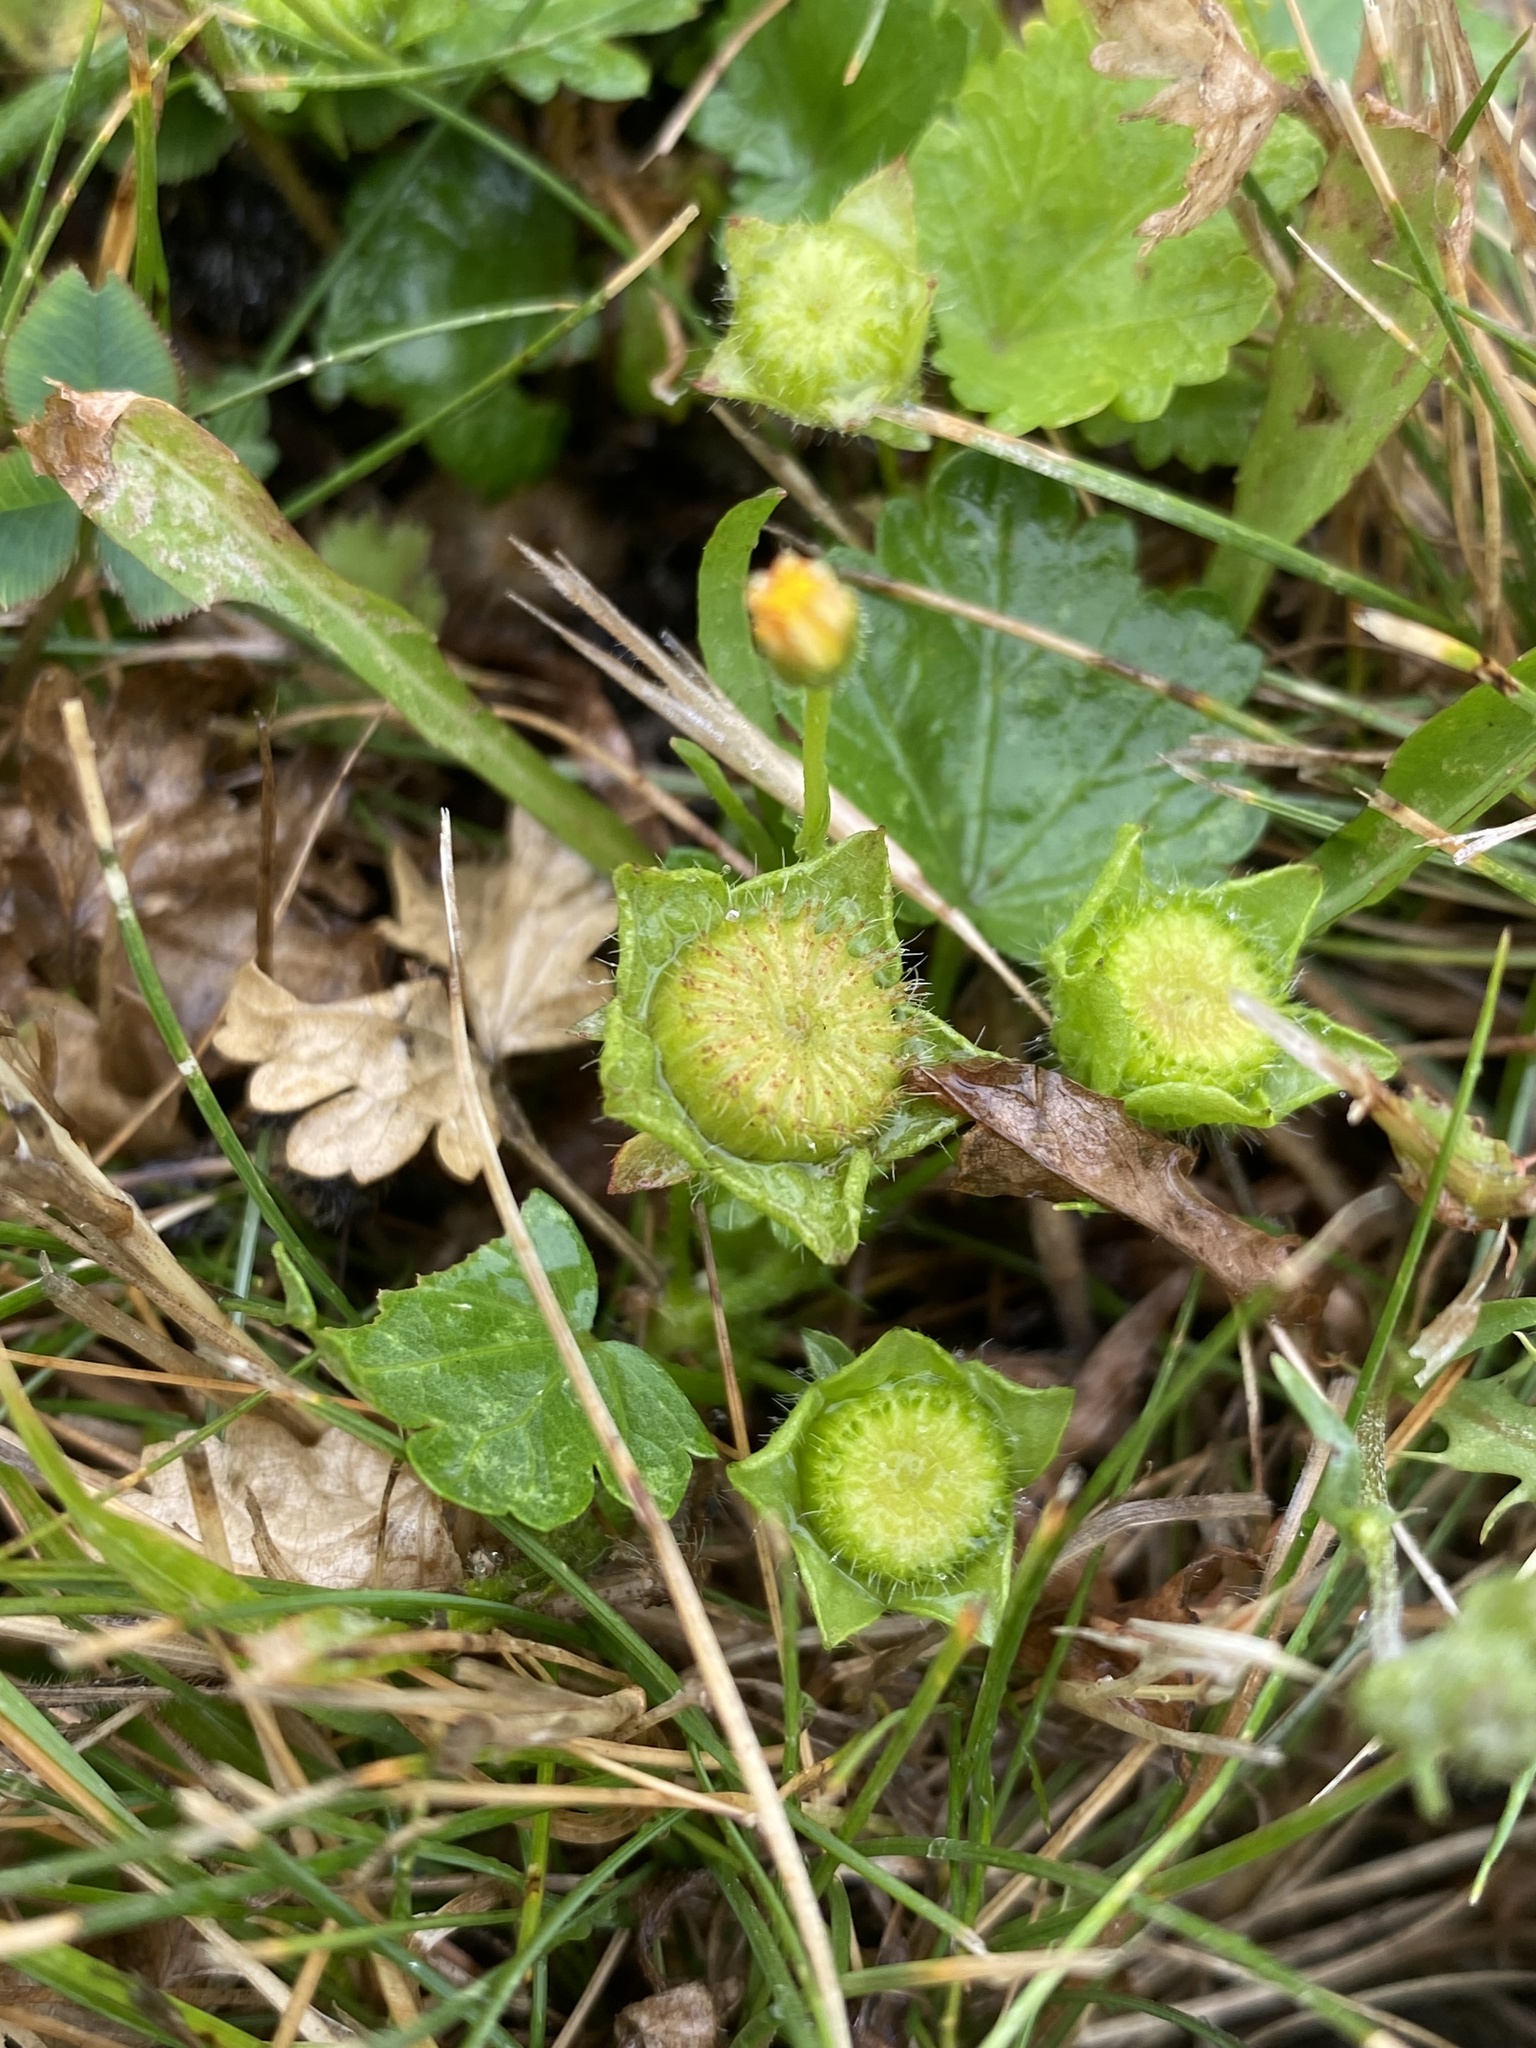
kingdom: Plantae
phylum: Tracheophyta
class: Magnoliopsida
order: Malvales
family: Malvaceae
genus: Modiola
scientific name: Modiola caroliniana
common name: Carolina bristlemallow
